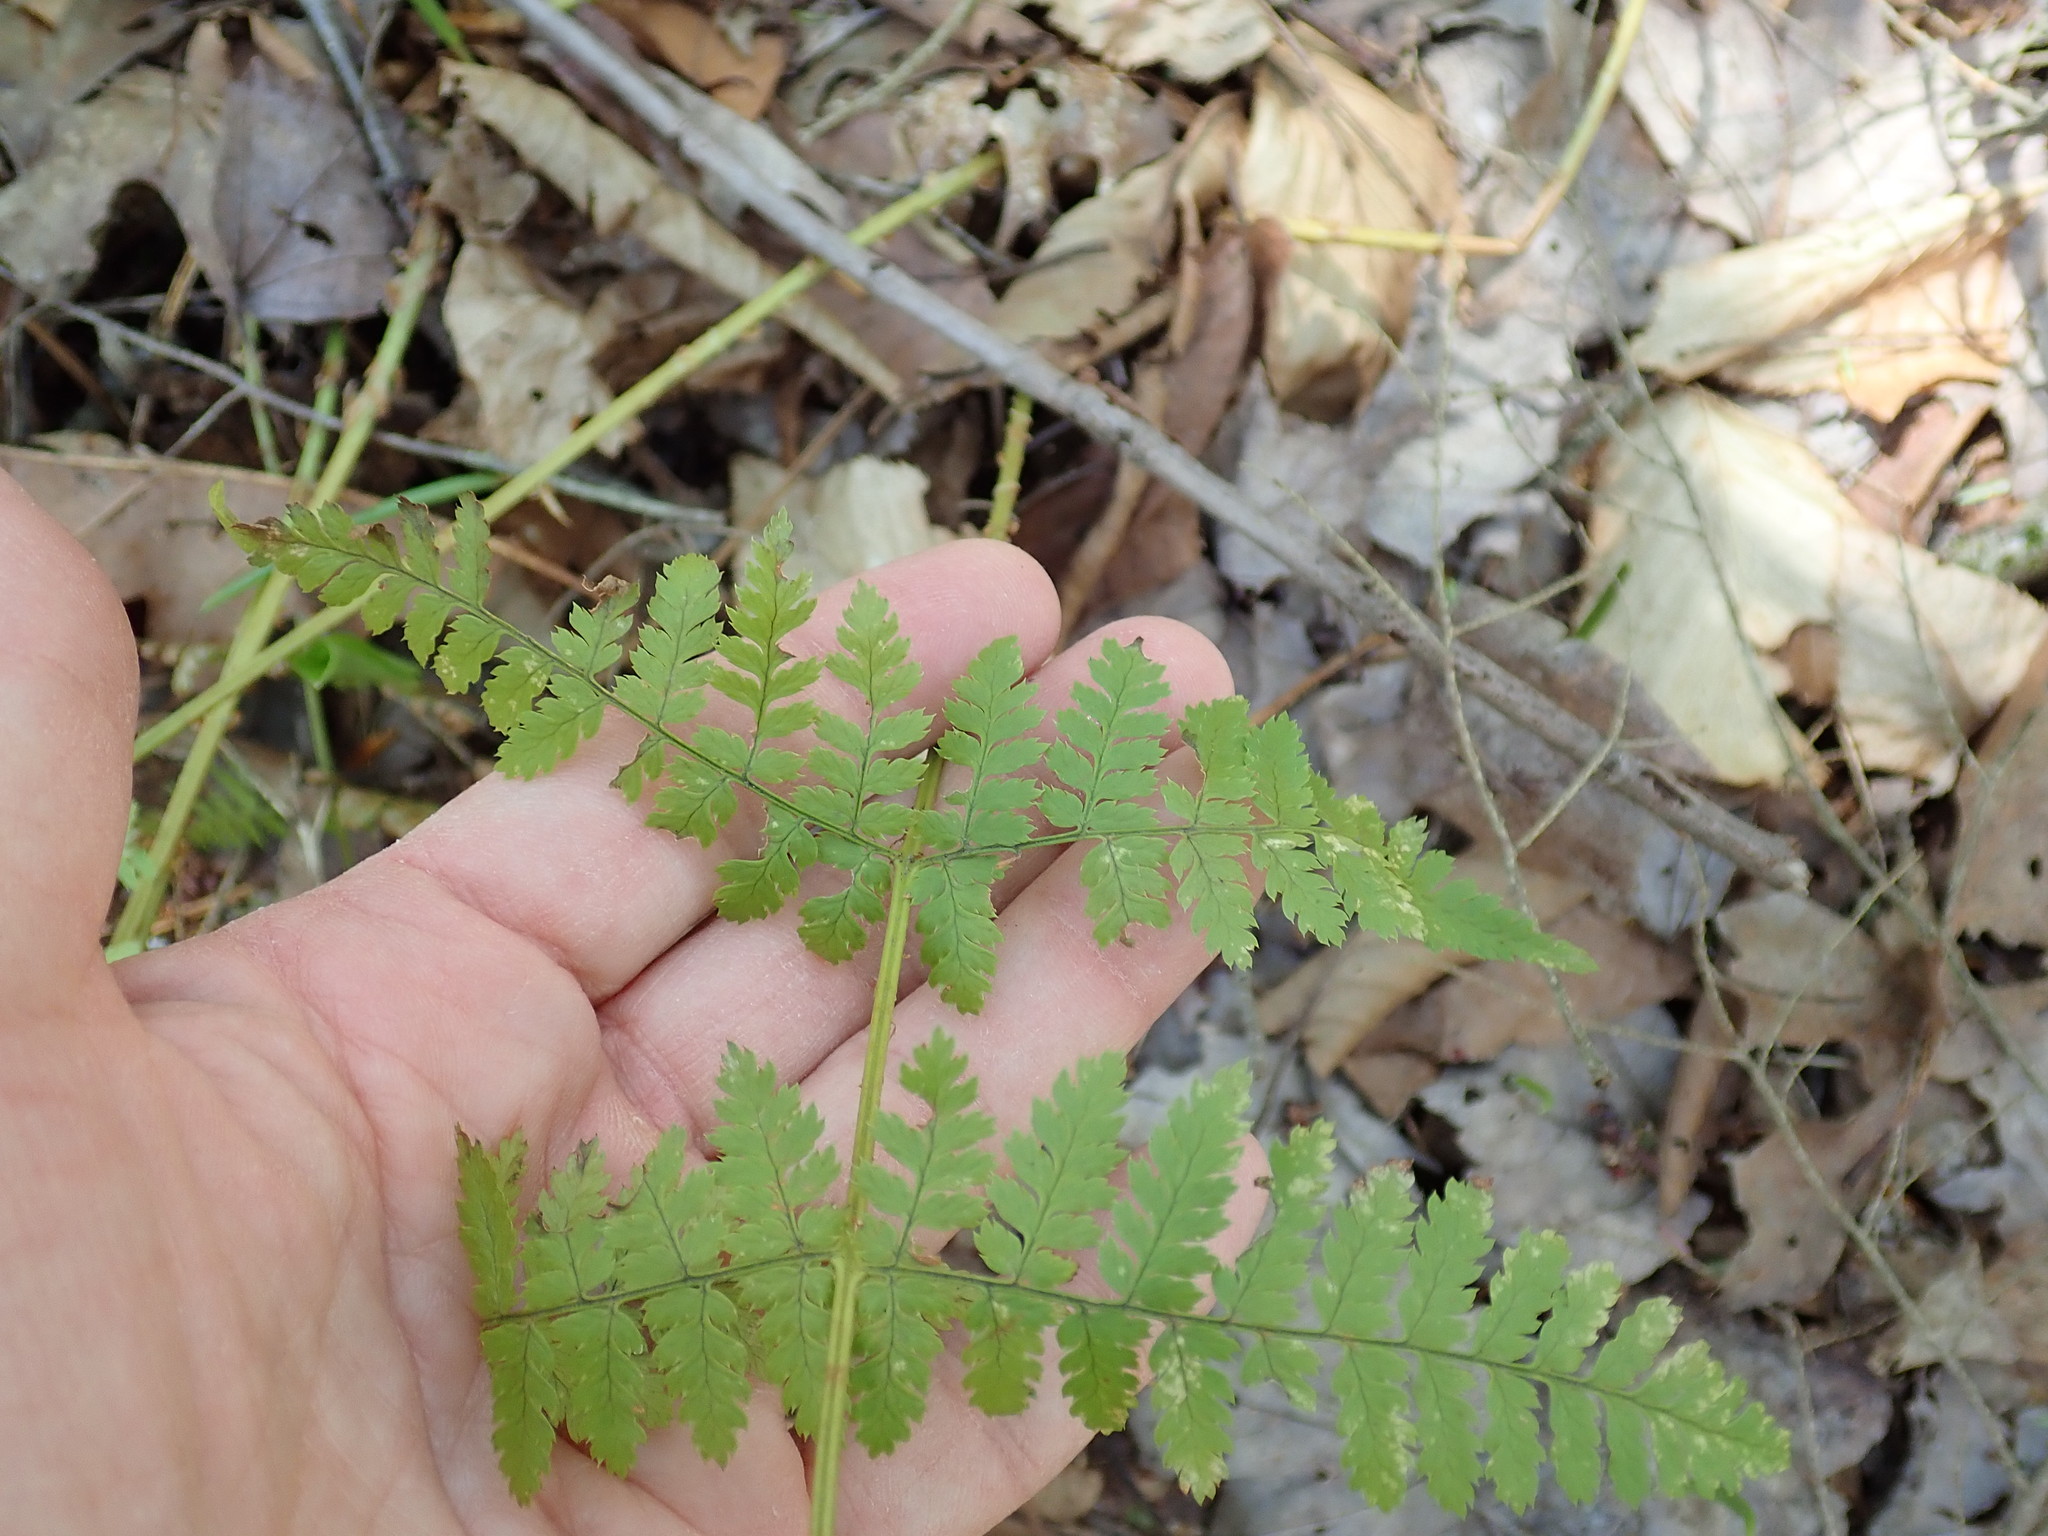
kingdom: Plantae
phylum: Tracheophyta
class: Polypodiopsida
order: Polypodiales
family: Dryopteridaceae
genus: Dryopteris
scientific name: Dryopteris intermedia
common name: Evergreen wood fern
